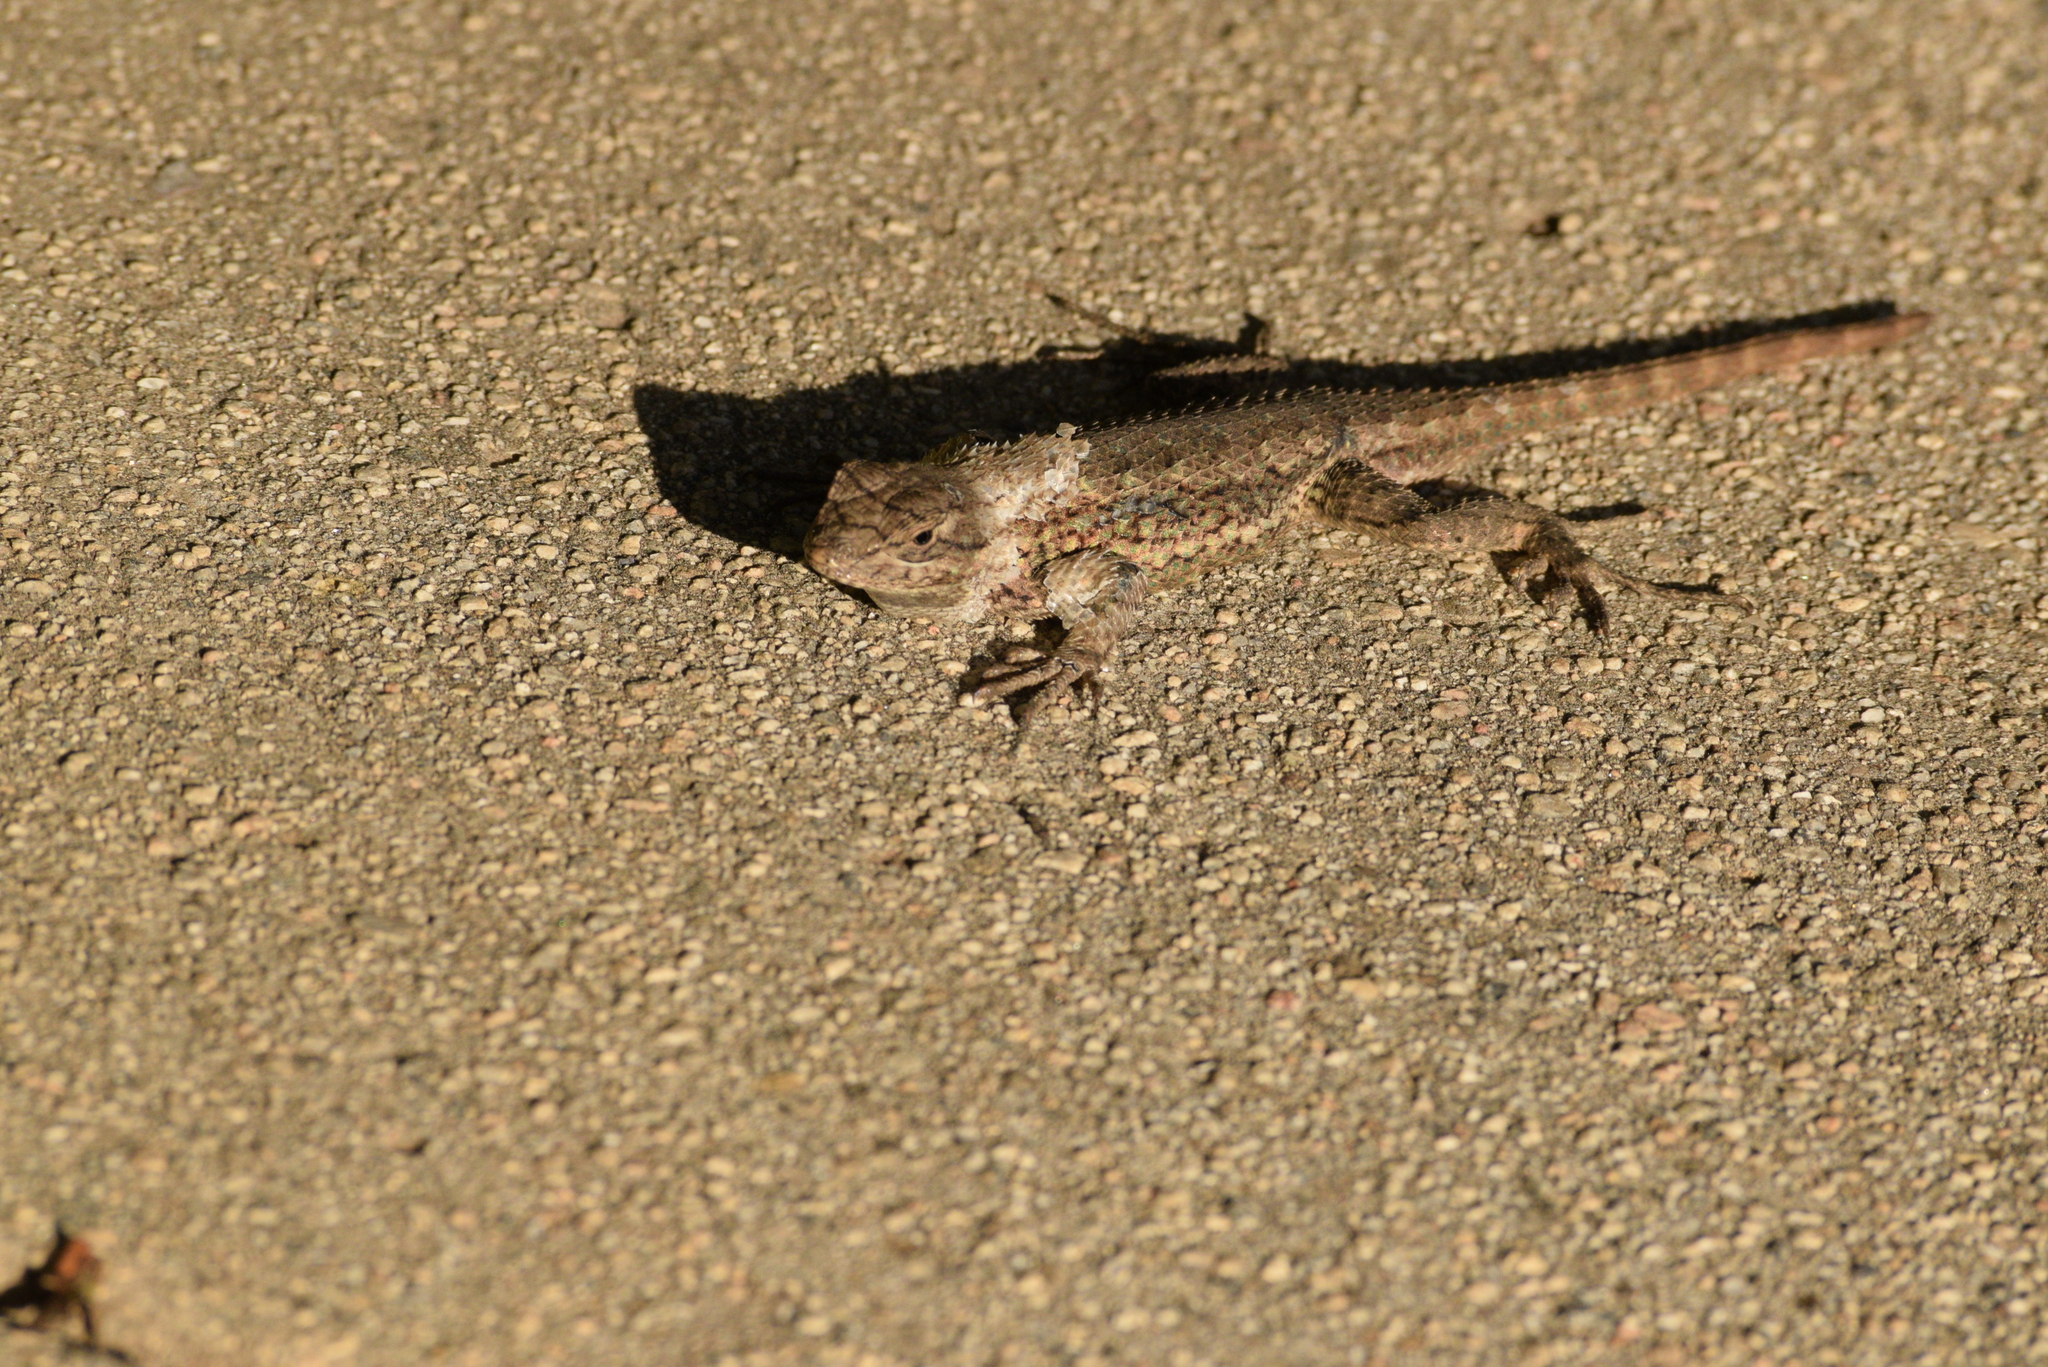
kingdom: Animalia
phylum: Chordata
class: Squamata
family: Phrynosomatidae
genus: Sceloporus
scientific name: Sceloporus occidentalis
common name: Western fence lizard
